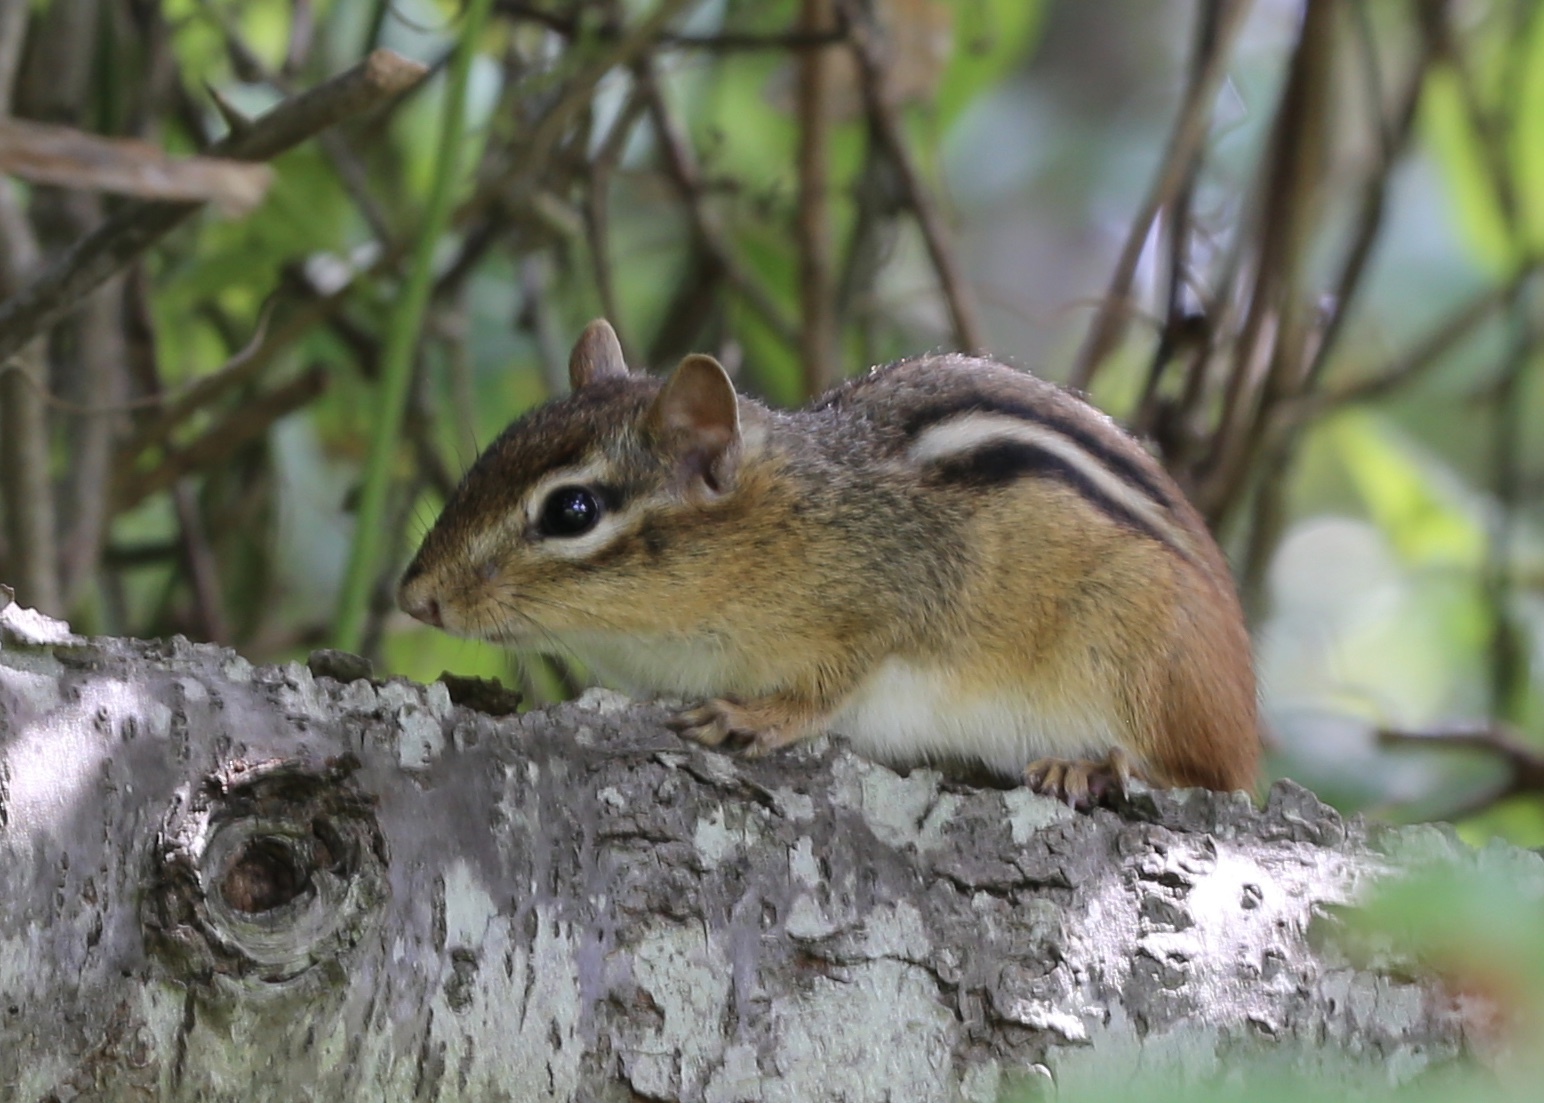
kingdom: Animalia
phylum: Chordata
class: Mammalia
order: Rodentia
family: Sciuridae
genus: Tamias
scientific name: Tamias striatus
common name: Eastern chipmunk
